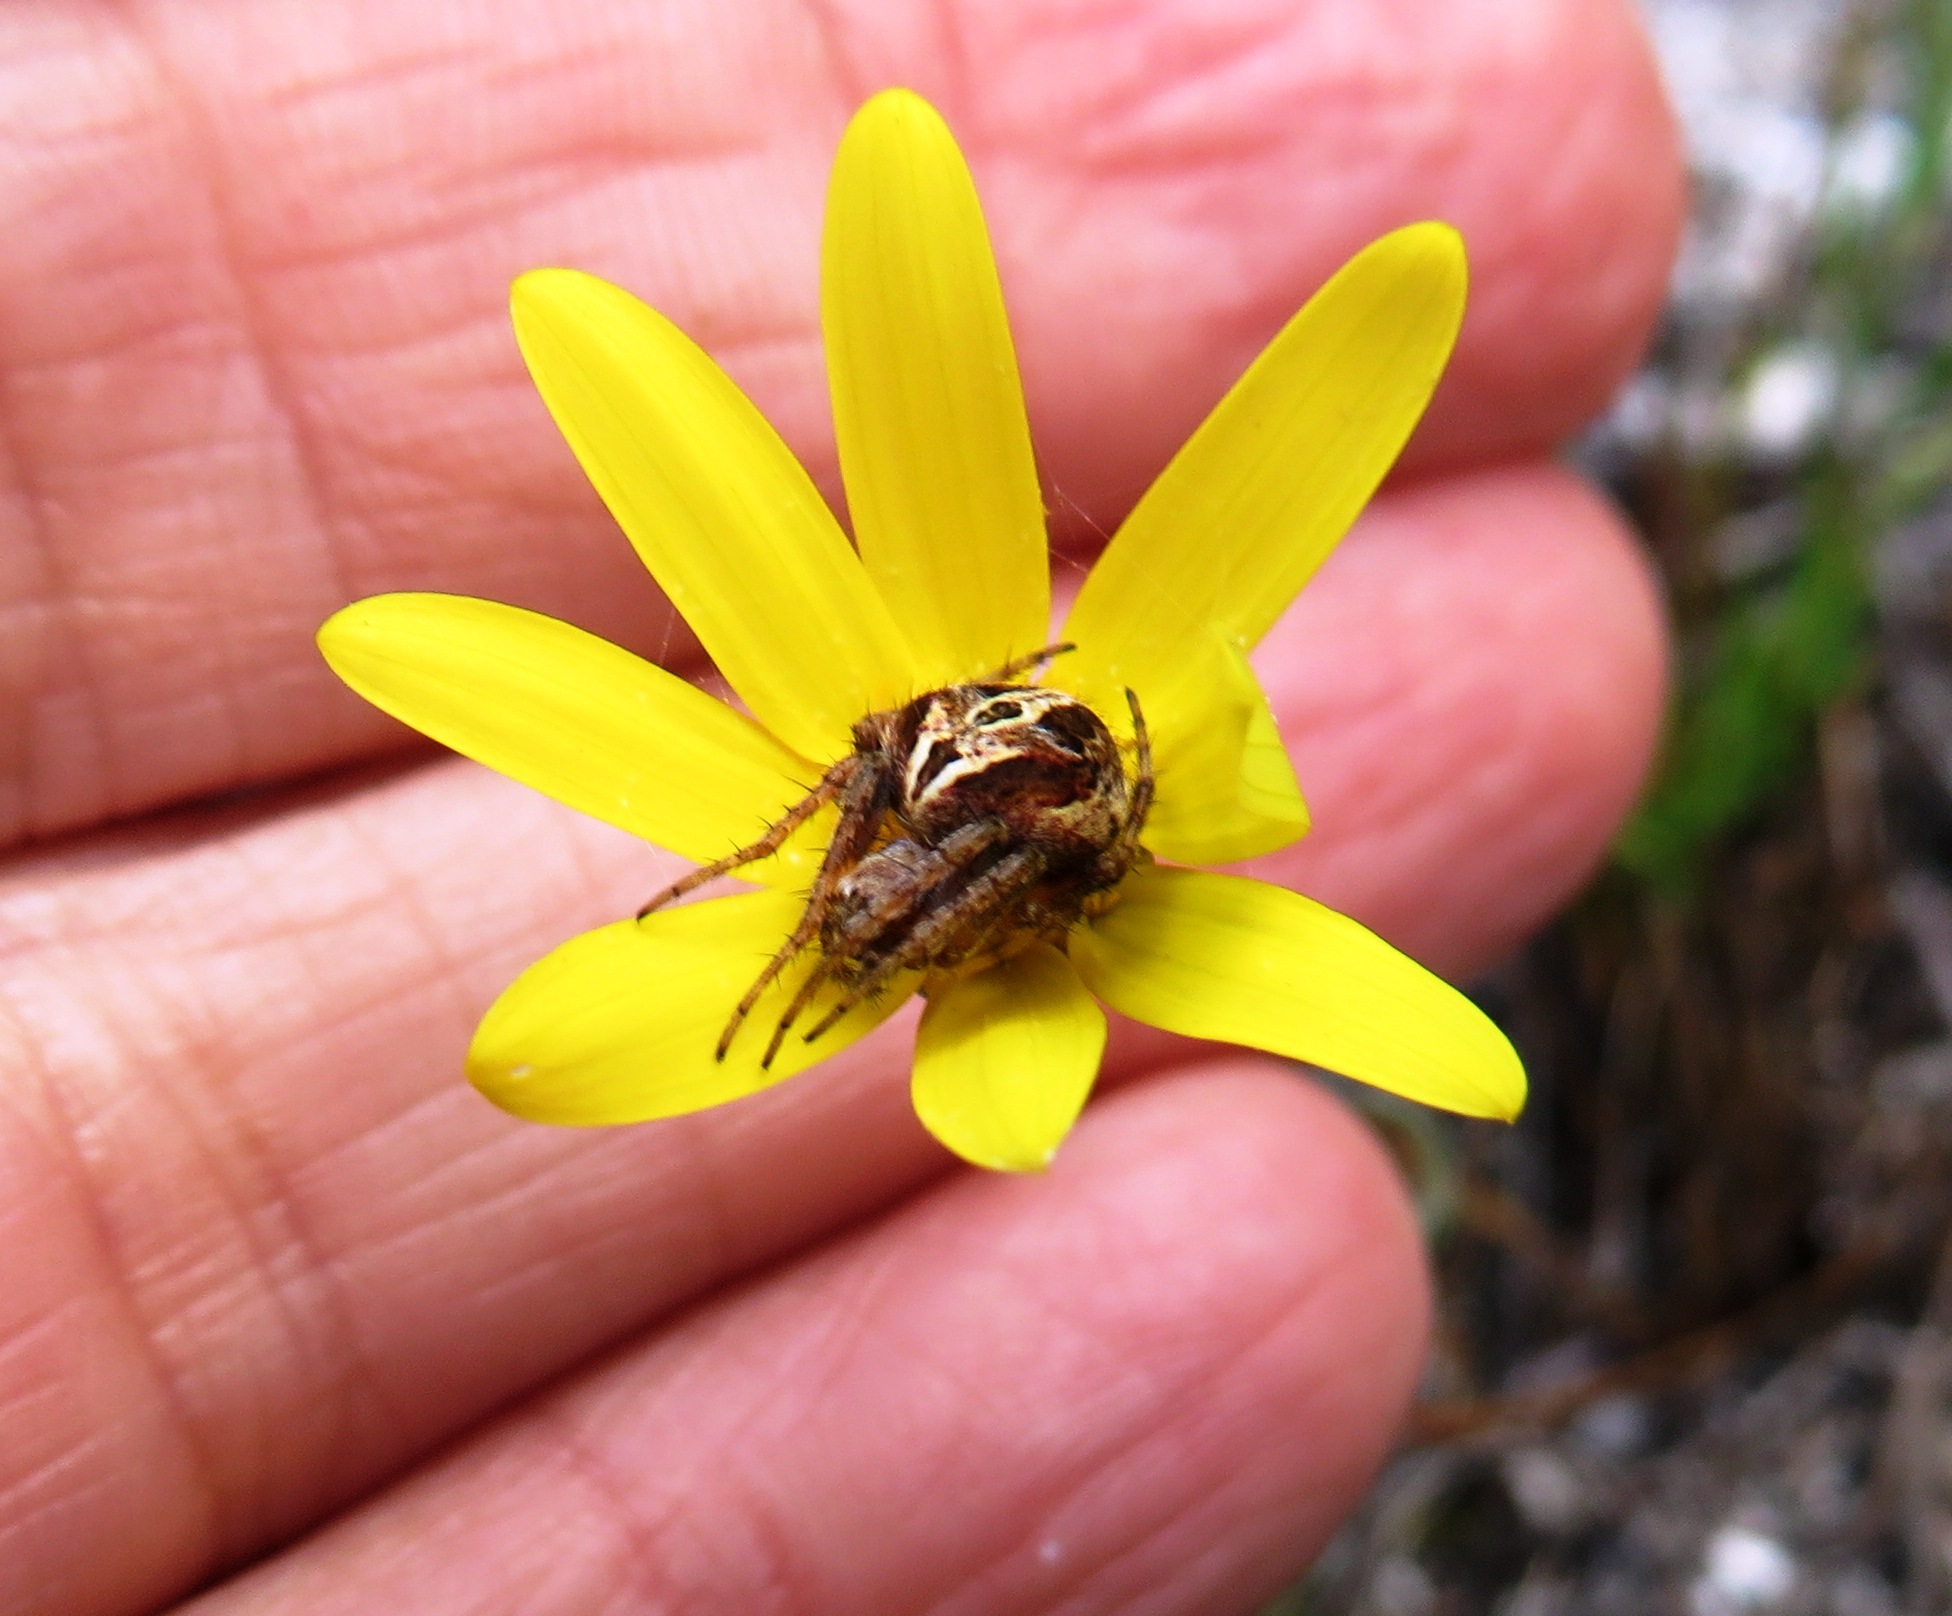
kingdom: Animalia
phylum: Arthropoda
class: Arachnida
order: Araneae
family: Araneidae
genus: Neoscona
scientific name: Neoscona subfusca
